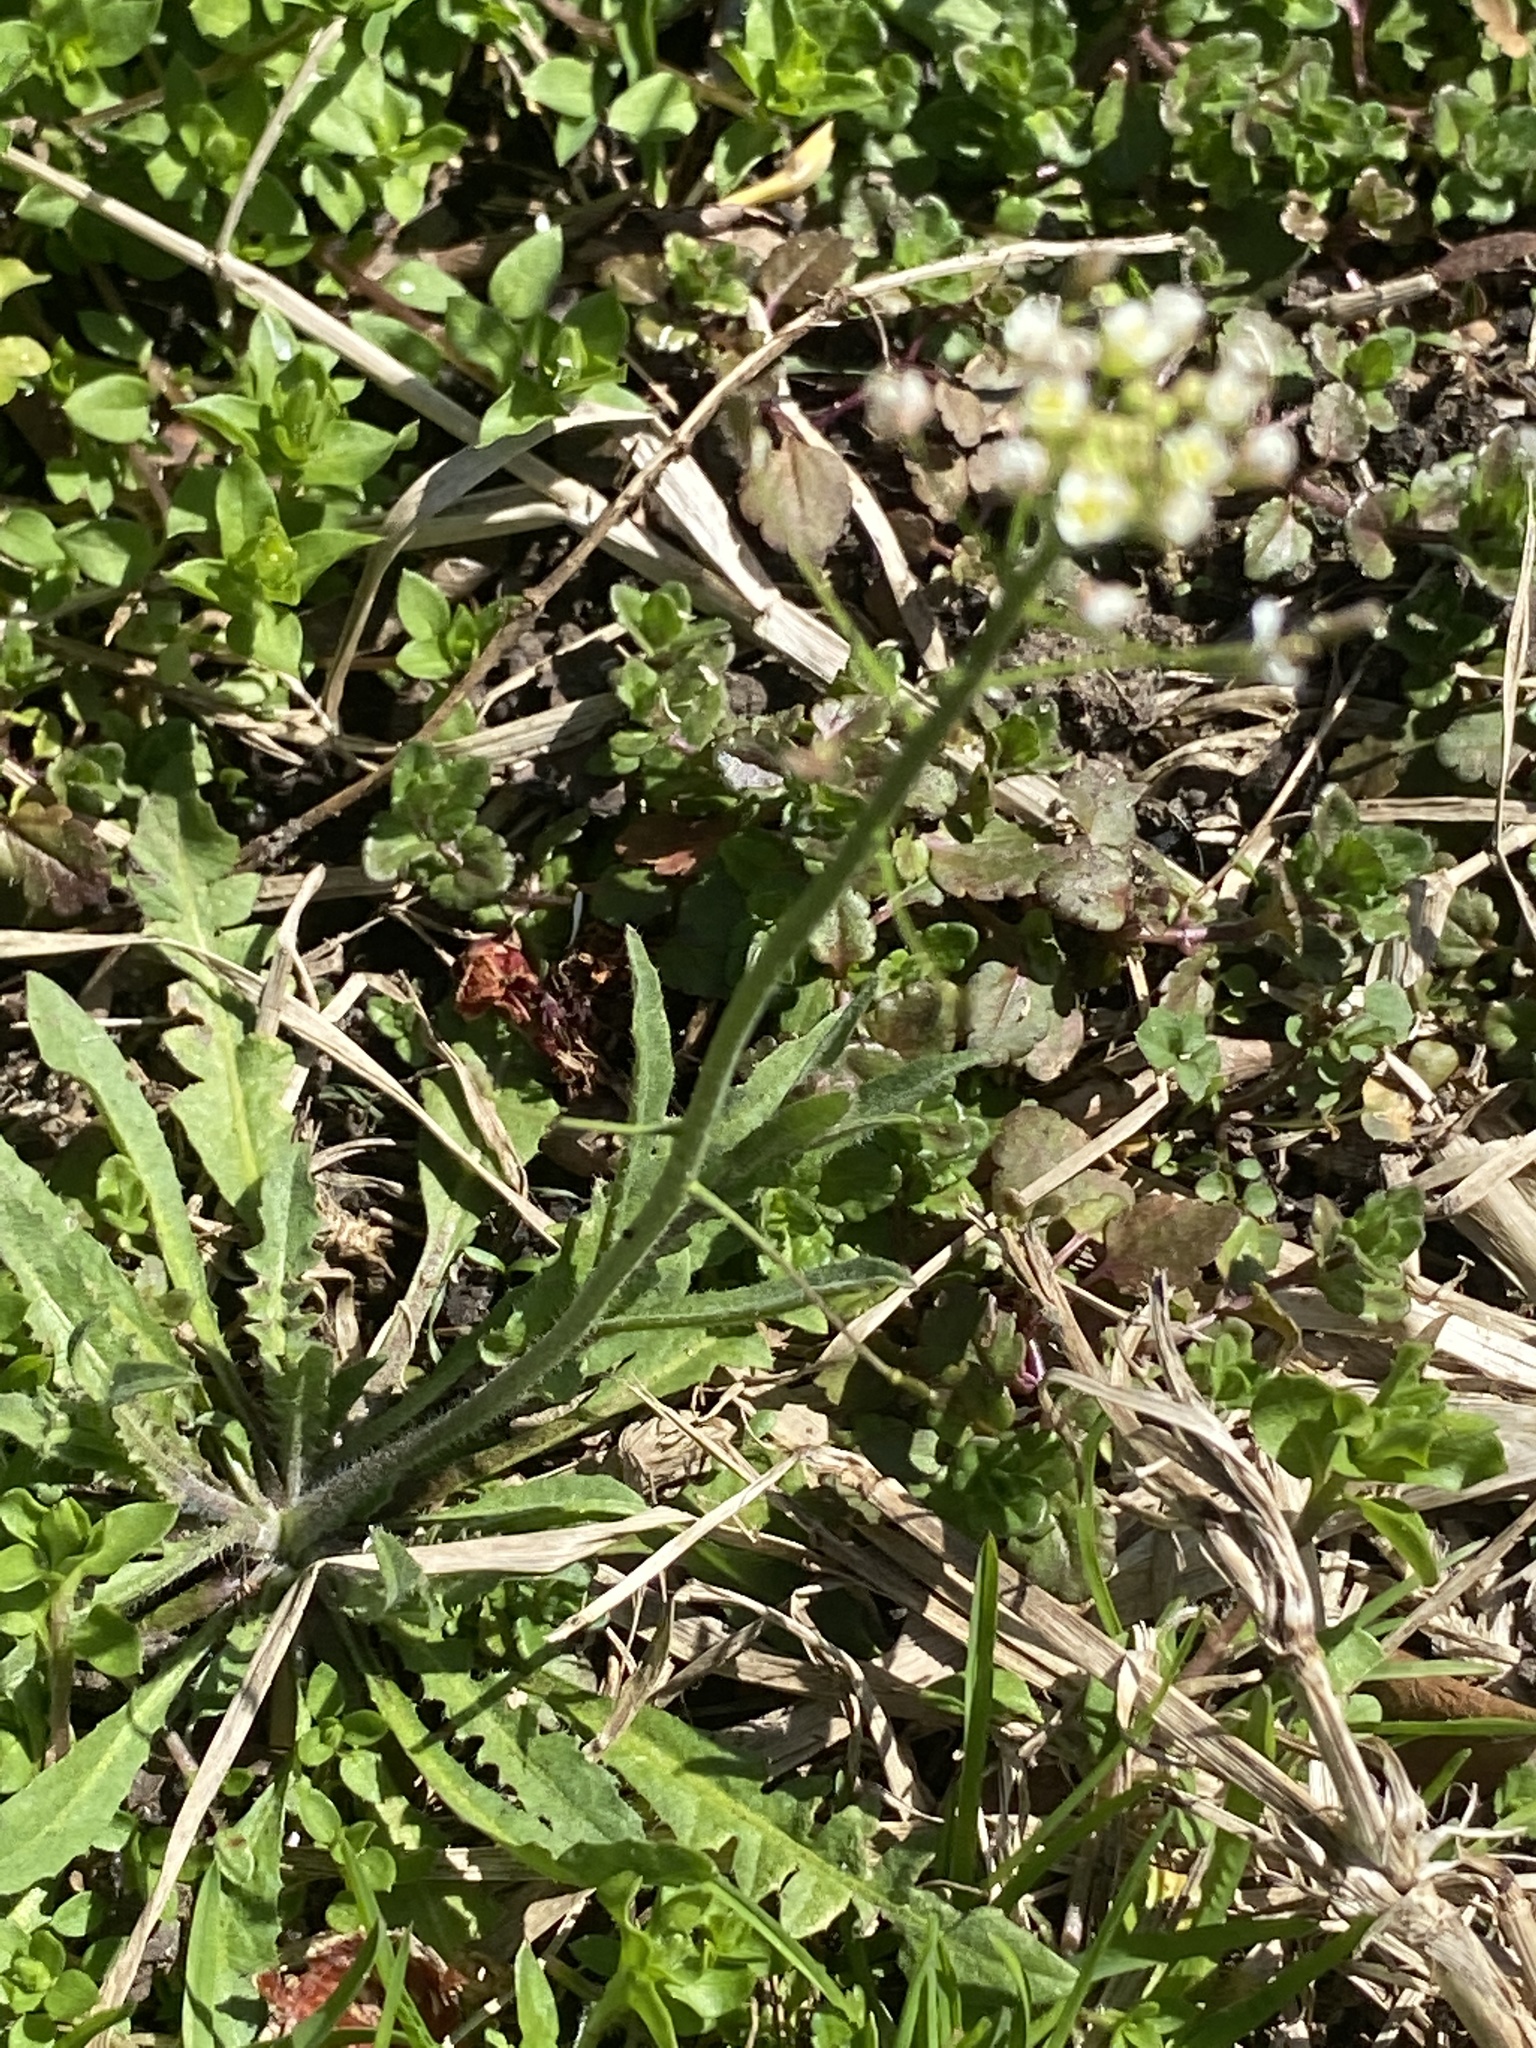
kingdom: Plantae
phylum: Tracheophyta
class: Magnoliopsida
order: Brassicales
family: Brassicaceae
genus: Capsella
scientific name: Capsella bursa-pastoris
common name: Shepherd's purse
